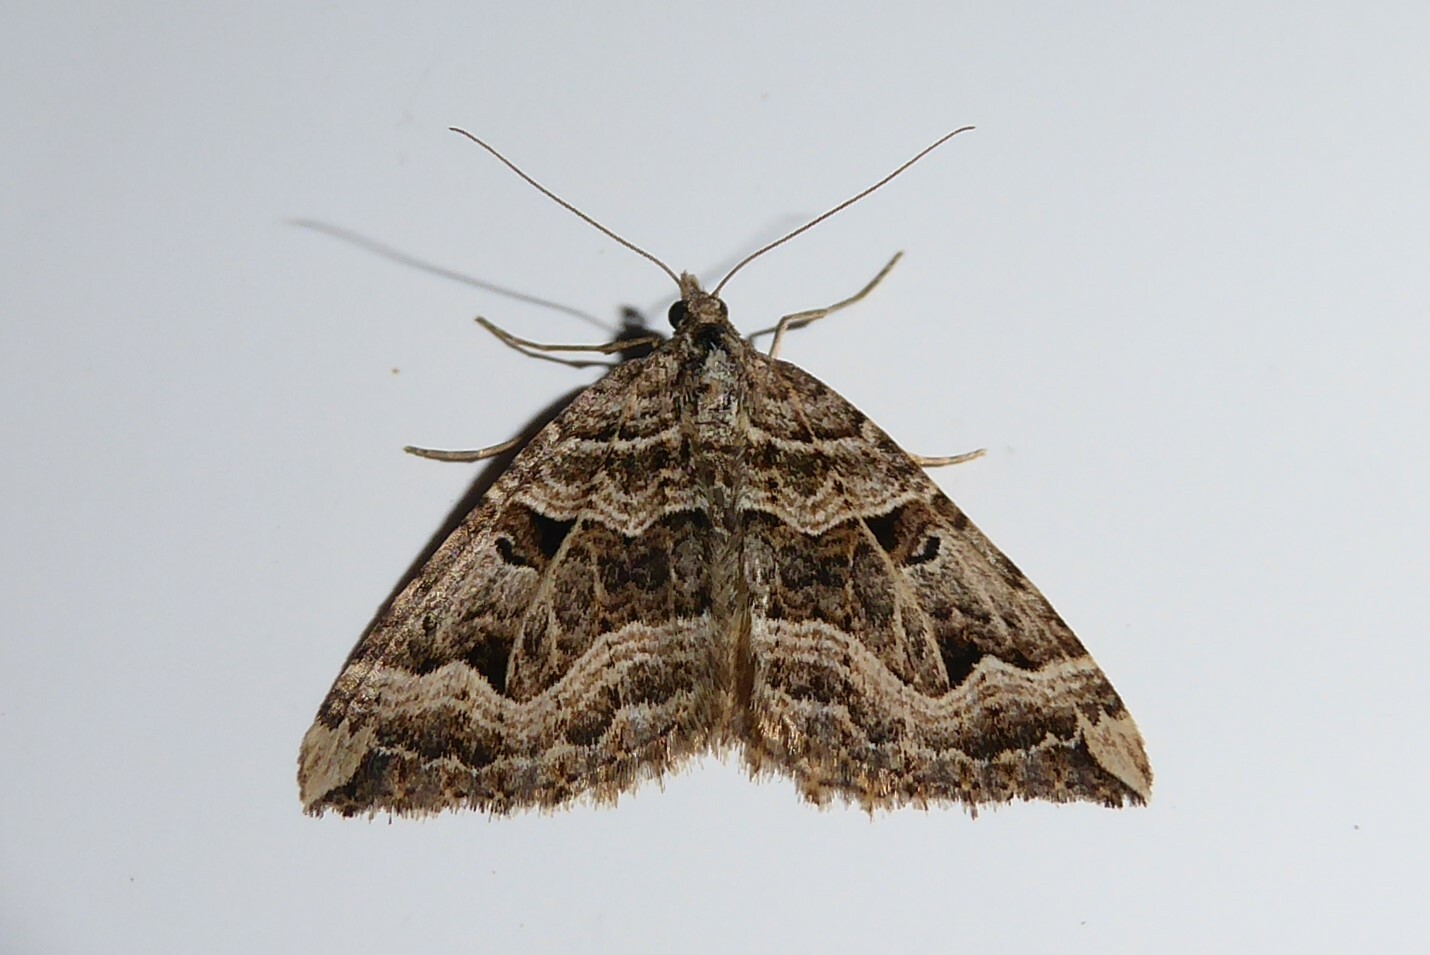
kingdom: Animalia
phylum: Arthropoda
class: Insecta
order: Lepidoptera
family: Geometridae
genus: Xanthorhoe
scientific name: Xanthorhoe semifissata
